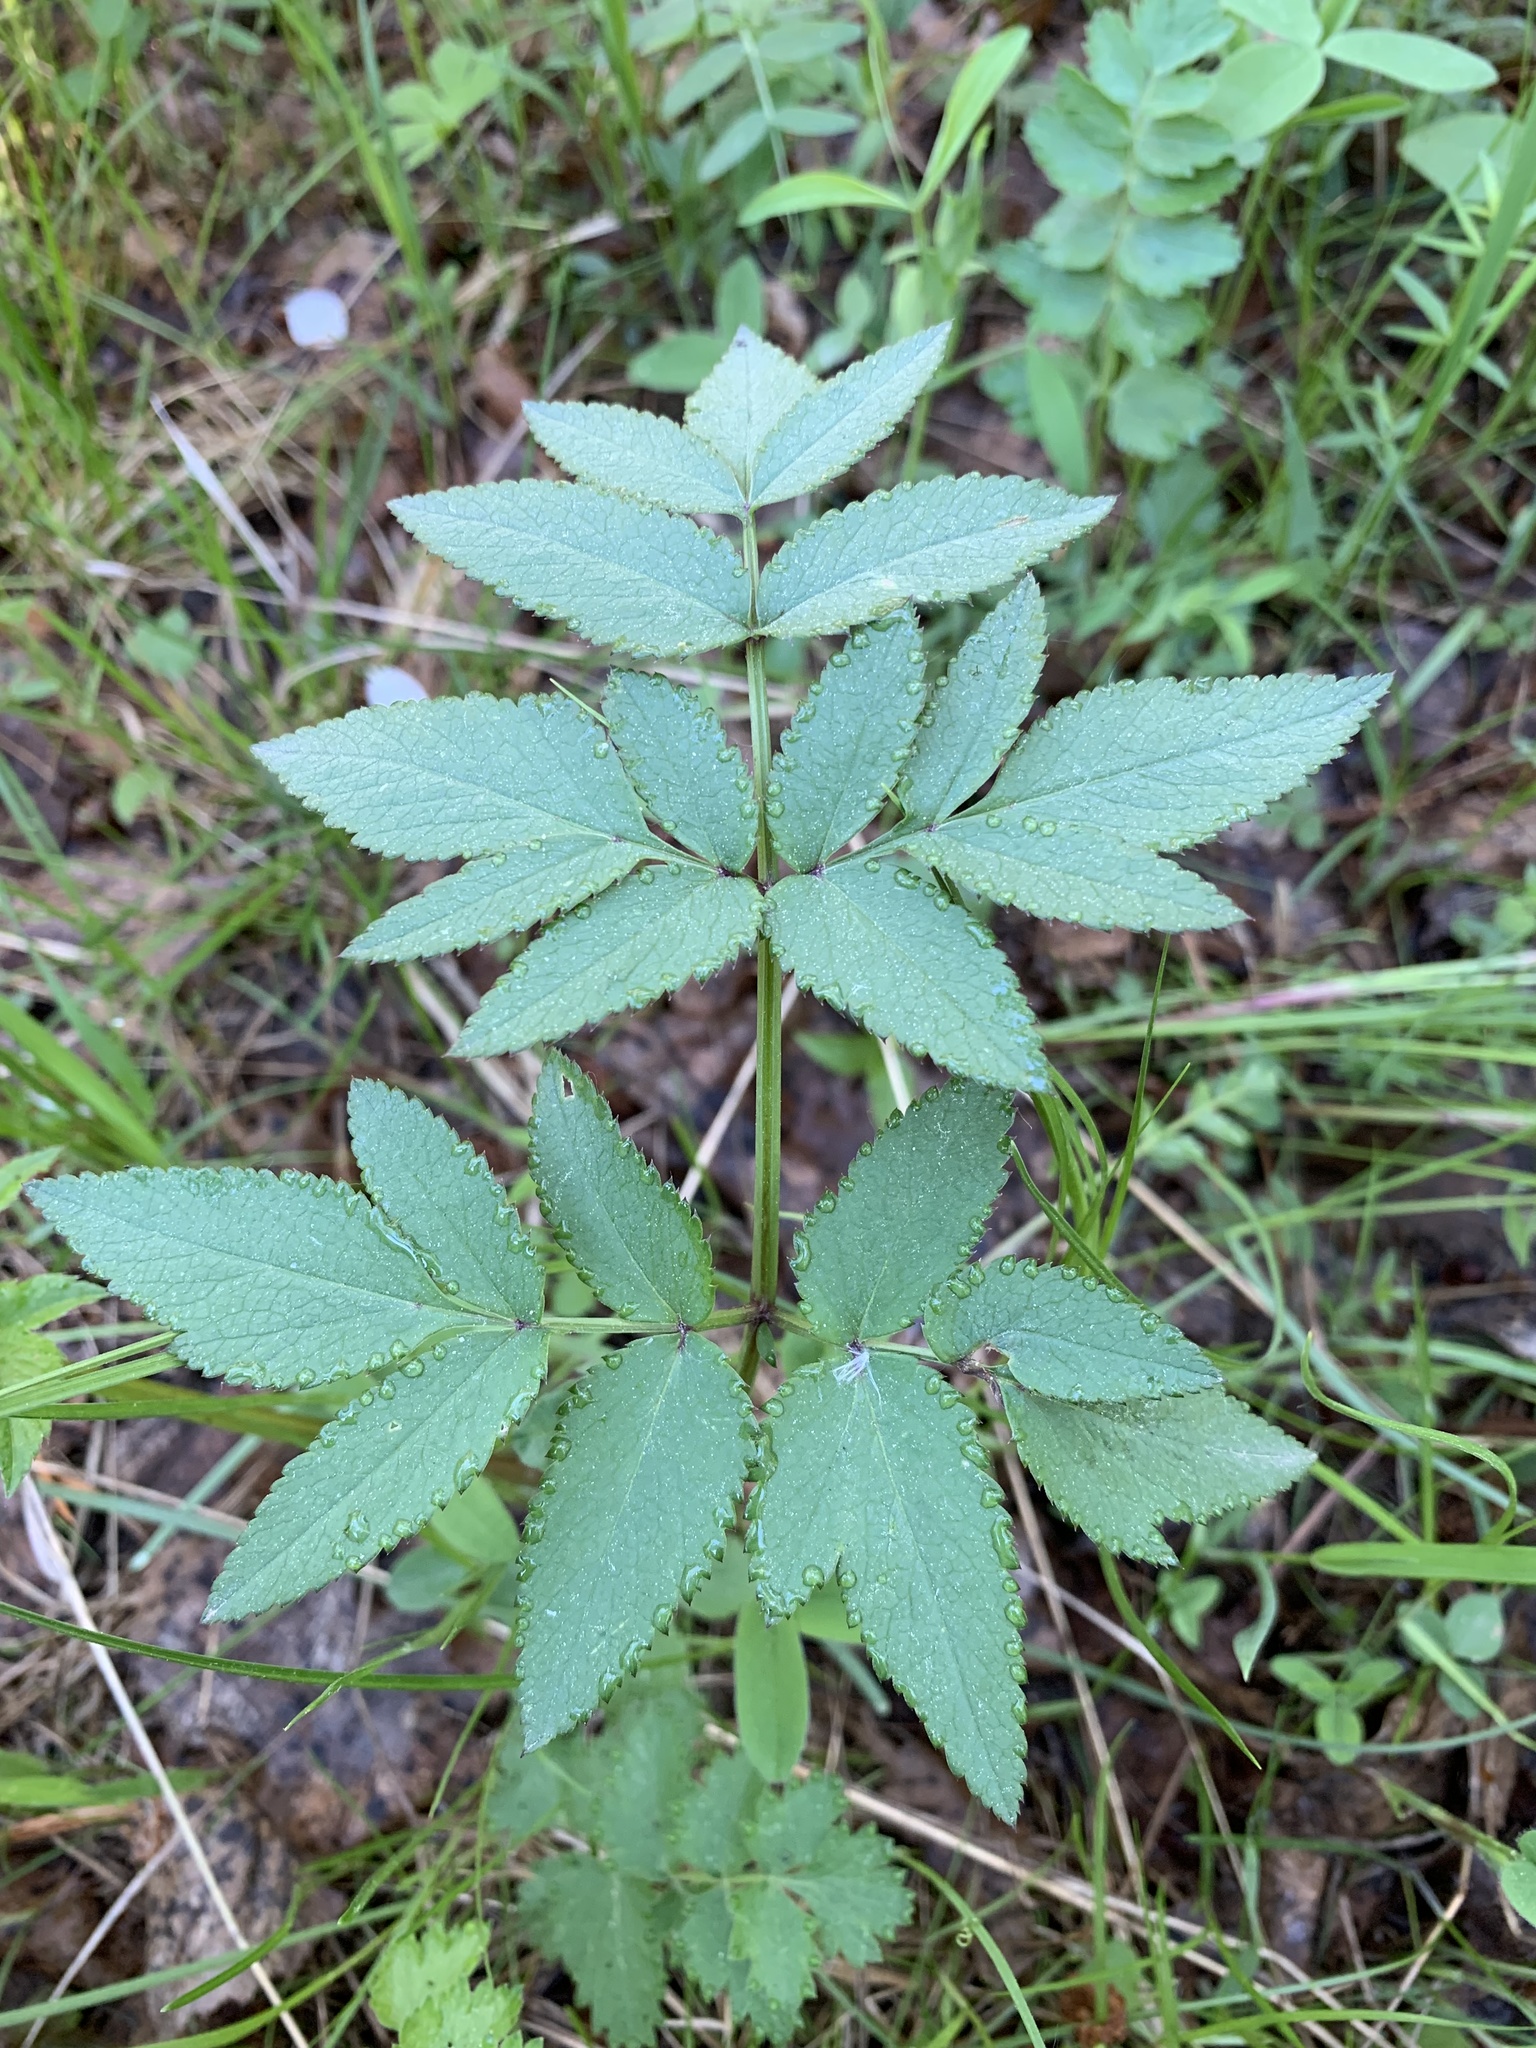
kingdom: Plantae
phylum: Tracheophyta
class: Magnoliopsida
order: Apiales
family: Apiaceae
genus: Angelica
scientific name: Angelica sylvestris
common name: Wild angelica
